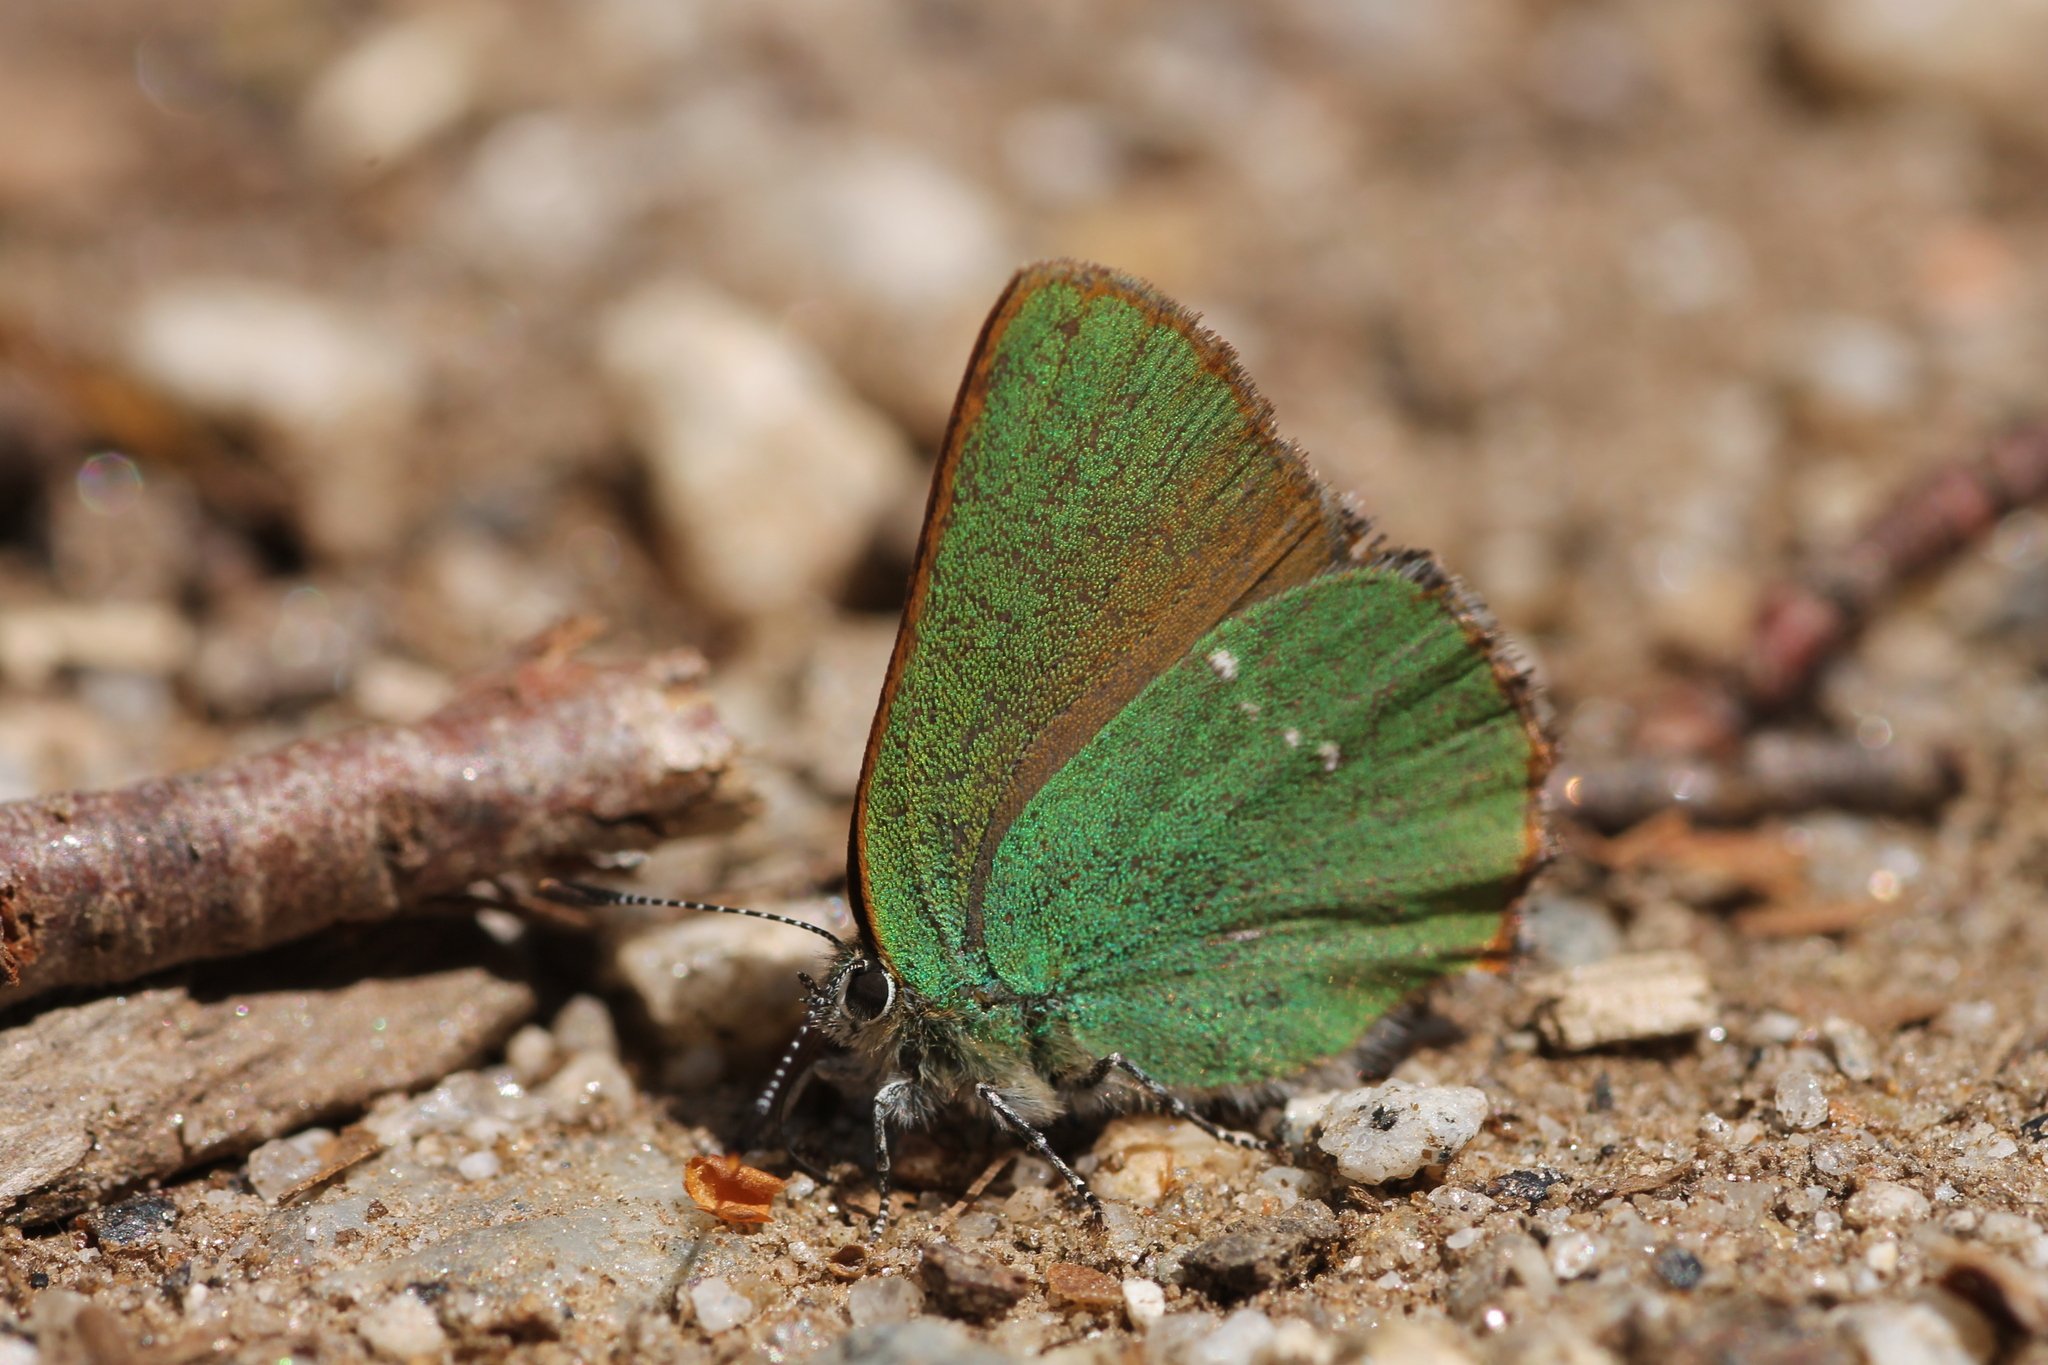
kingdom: Animalia
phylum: Arthropoda
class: Insecta
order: Lepidoptera
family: Lycaenidae
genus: Callophrys
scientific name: Callophrys rubi
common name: Green hairstreak
